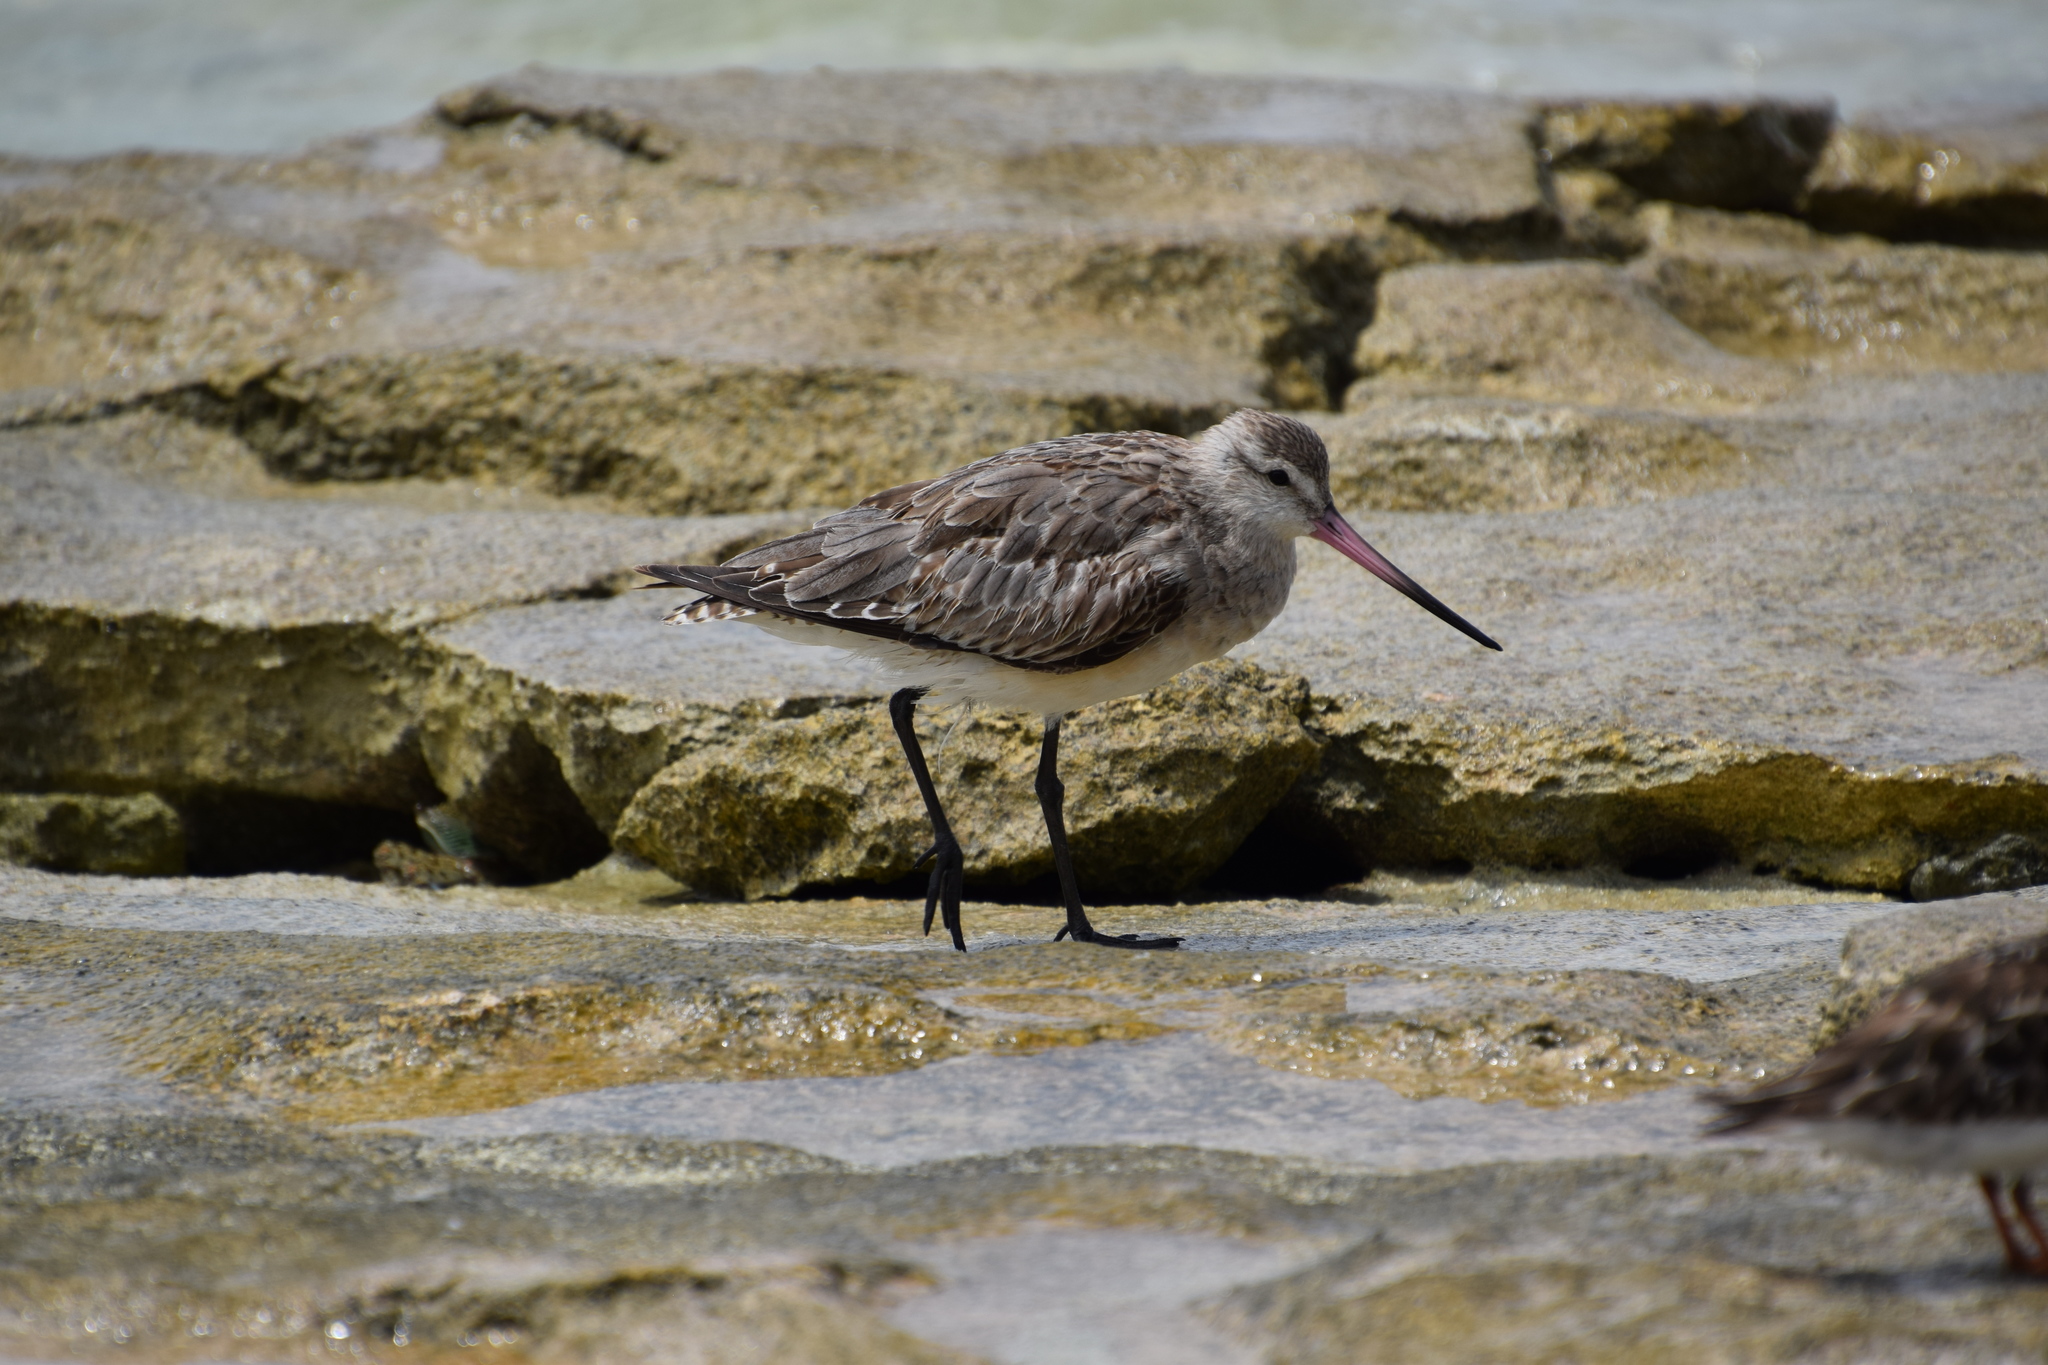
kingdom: Animalia
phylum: Chordata
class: Aves
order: Charadriiformes
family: Scolopacidae
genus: Limosa
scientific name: Limosa lapponica
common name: Bar-tailed godwit
